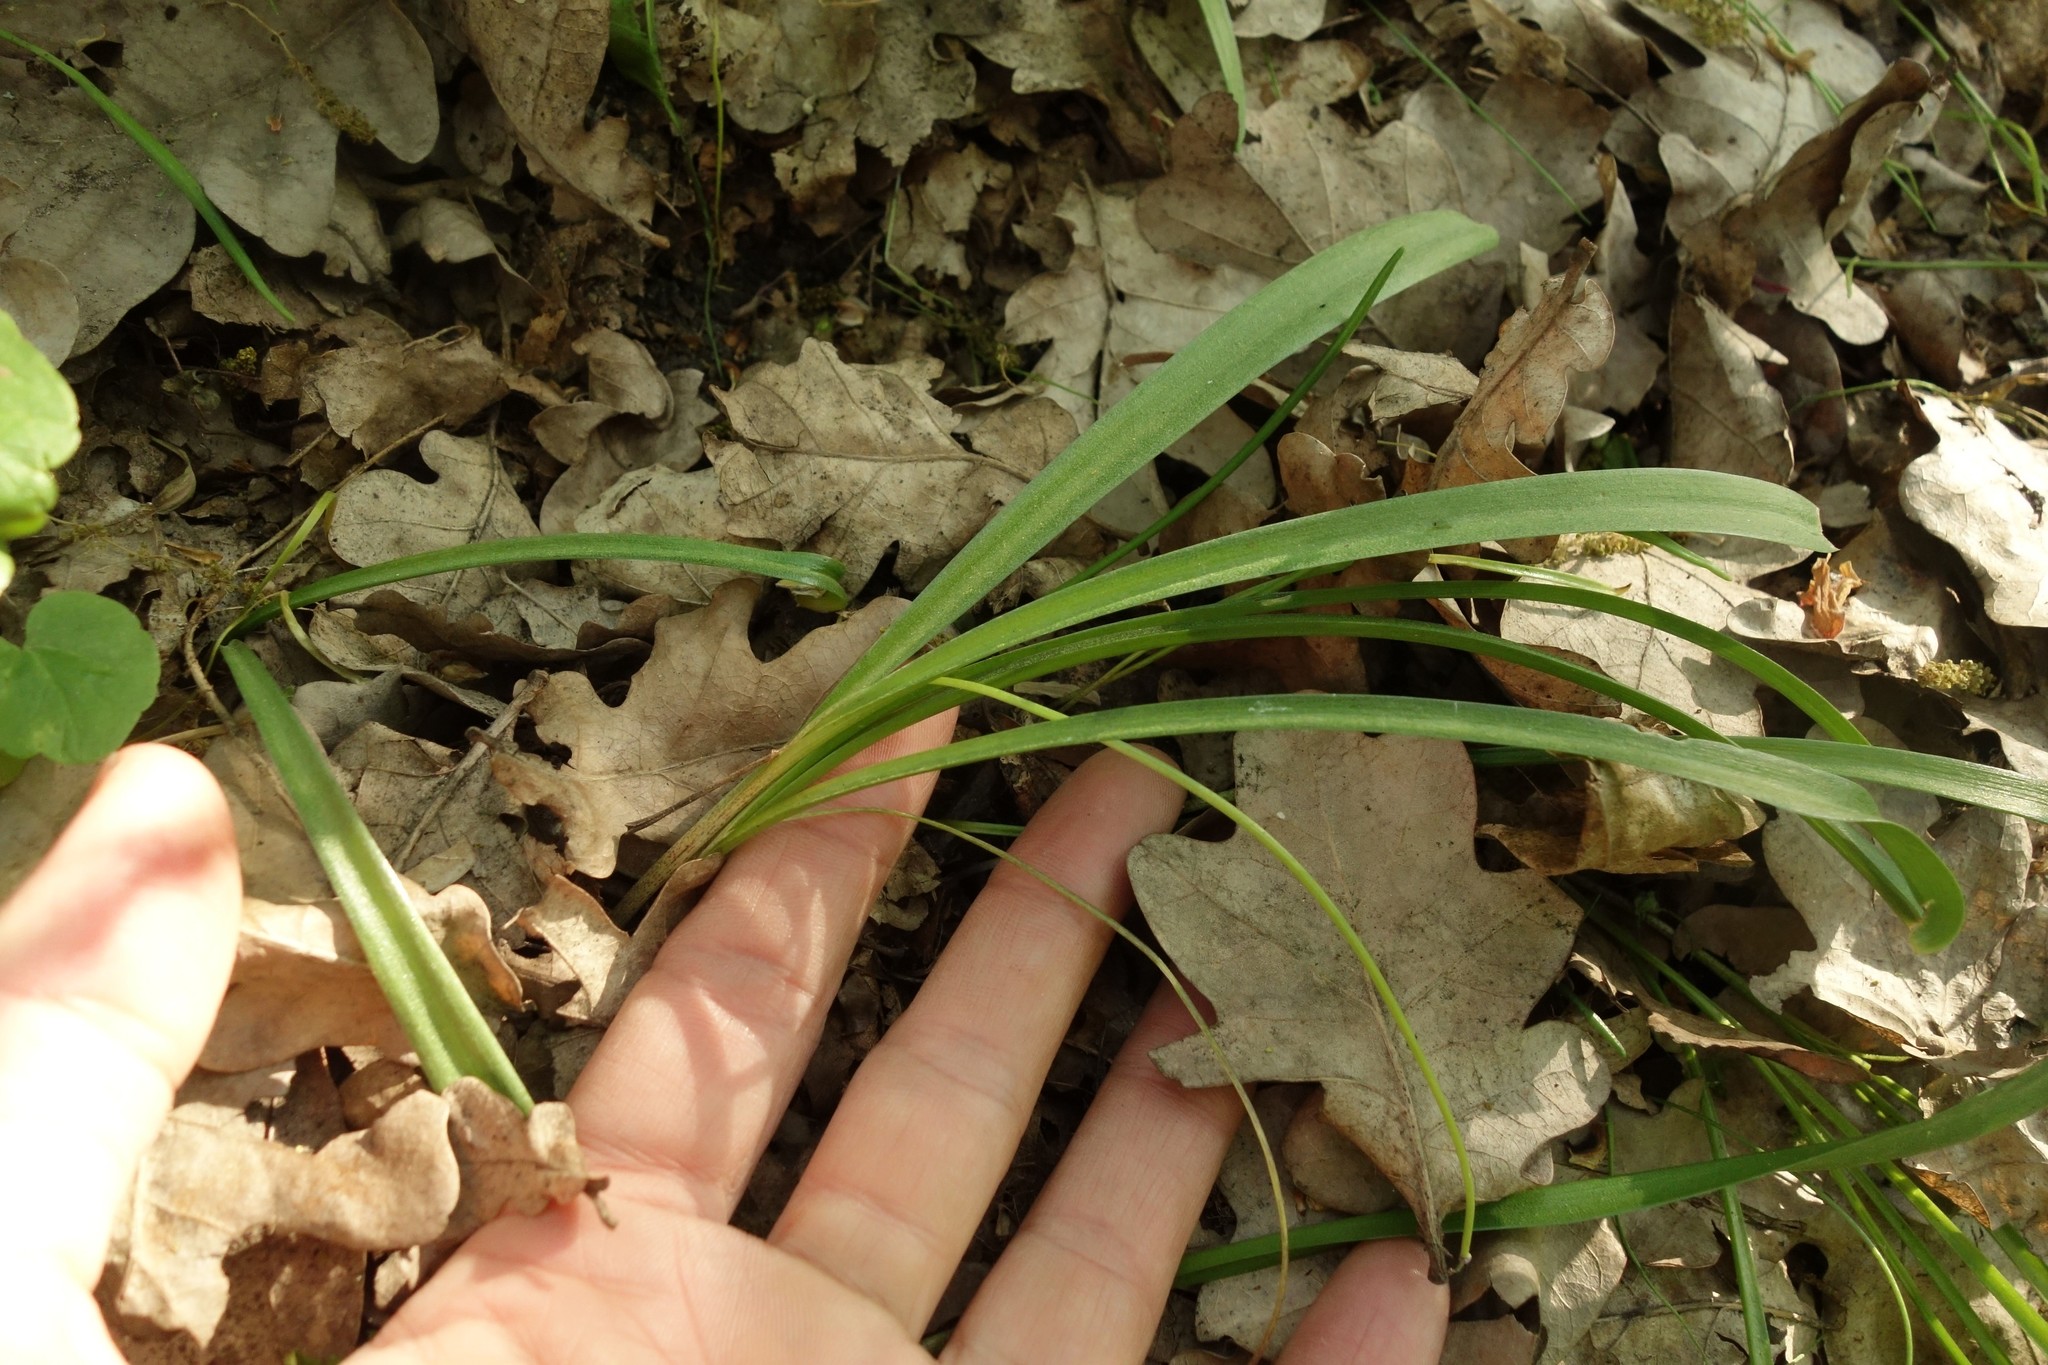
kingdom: Plantae
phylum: Tracheophyta
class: Liliopsida
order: Asparagales
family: Asparagaceae
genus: Scilla
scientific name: Scilla siberica
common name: Siberian squill
